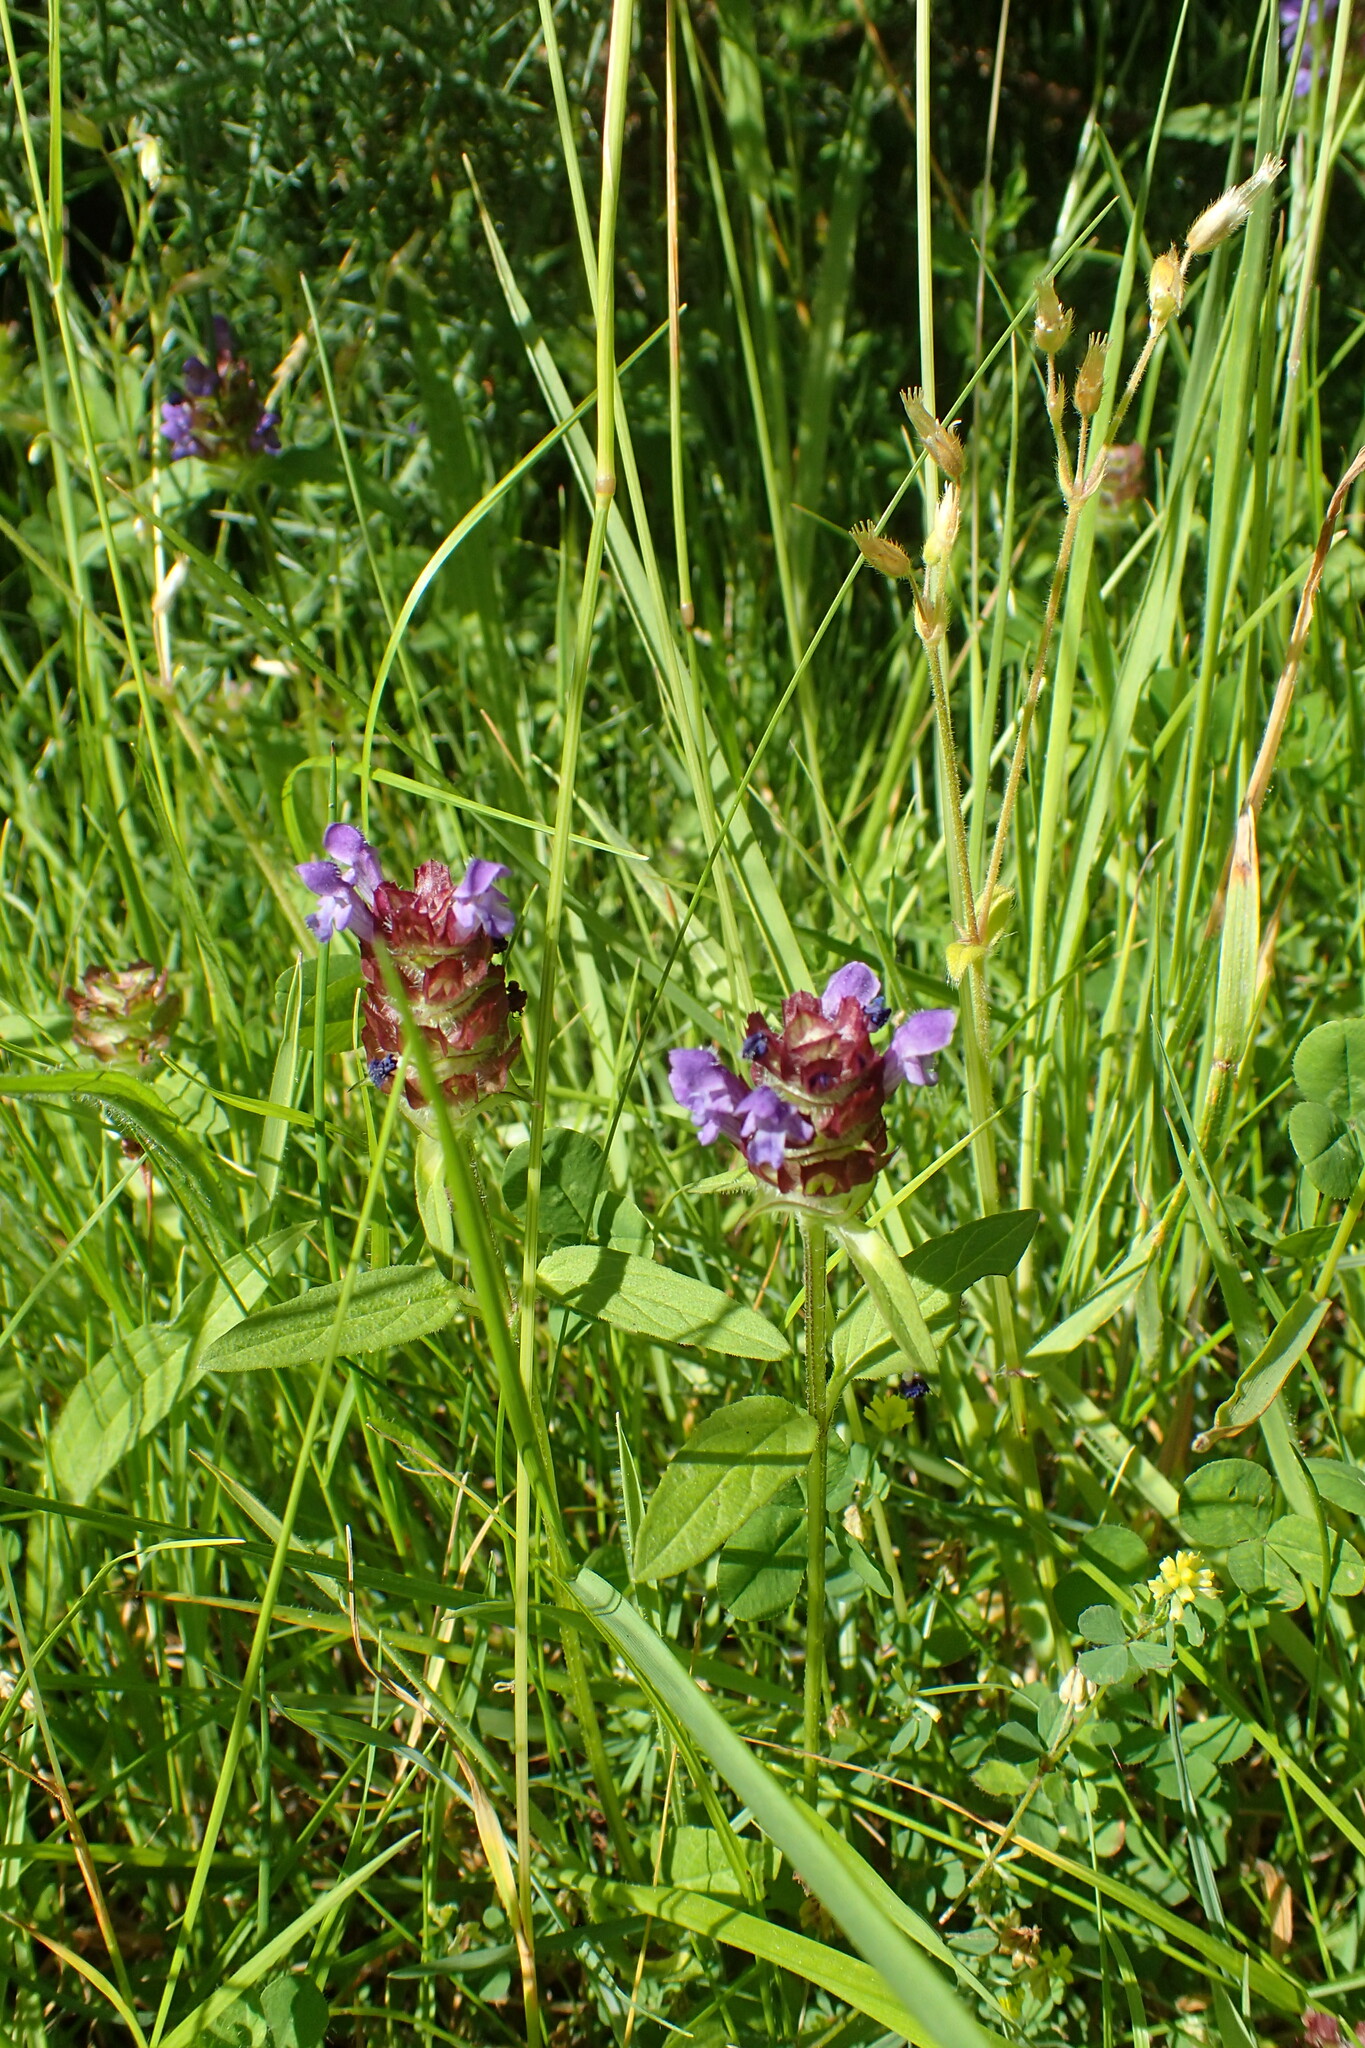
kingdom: Plantae
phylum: Tracheophyta
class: Magnoliopsida
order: Lamiales
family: Lamiaceae
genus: Prunella
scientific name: Prunella vulgaris
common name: Heal-all
